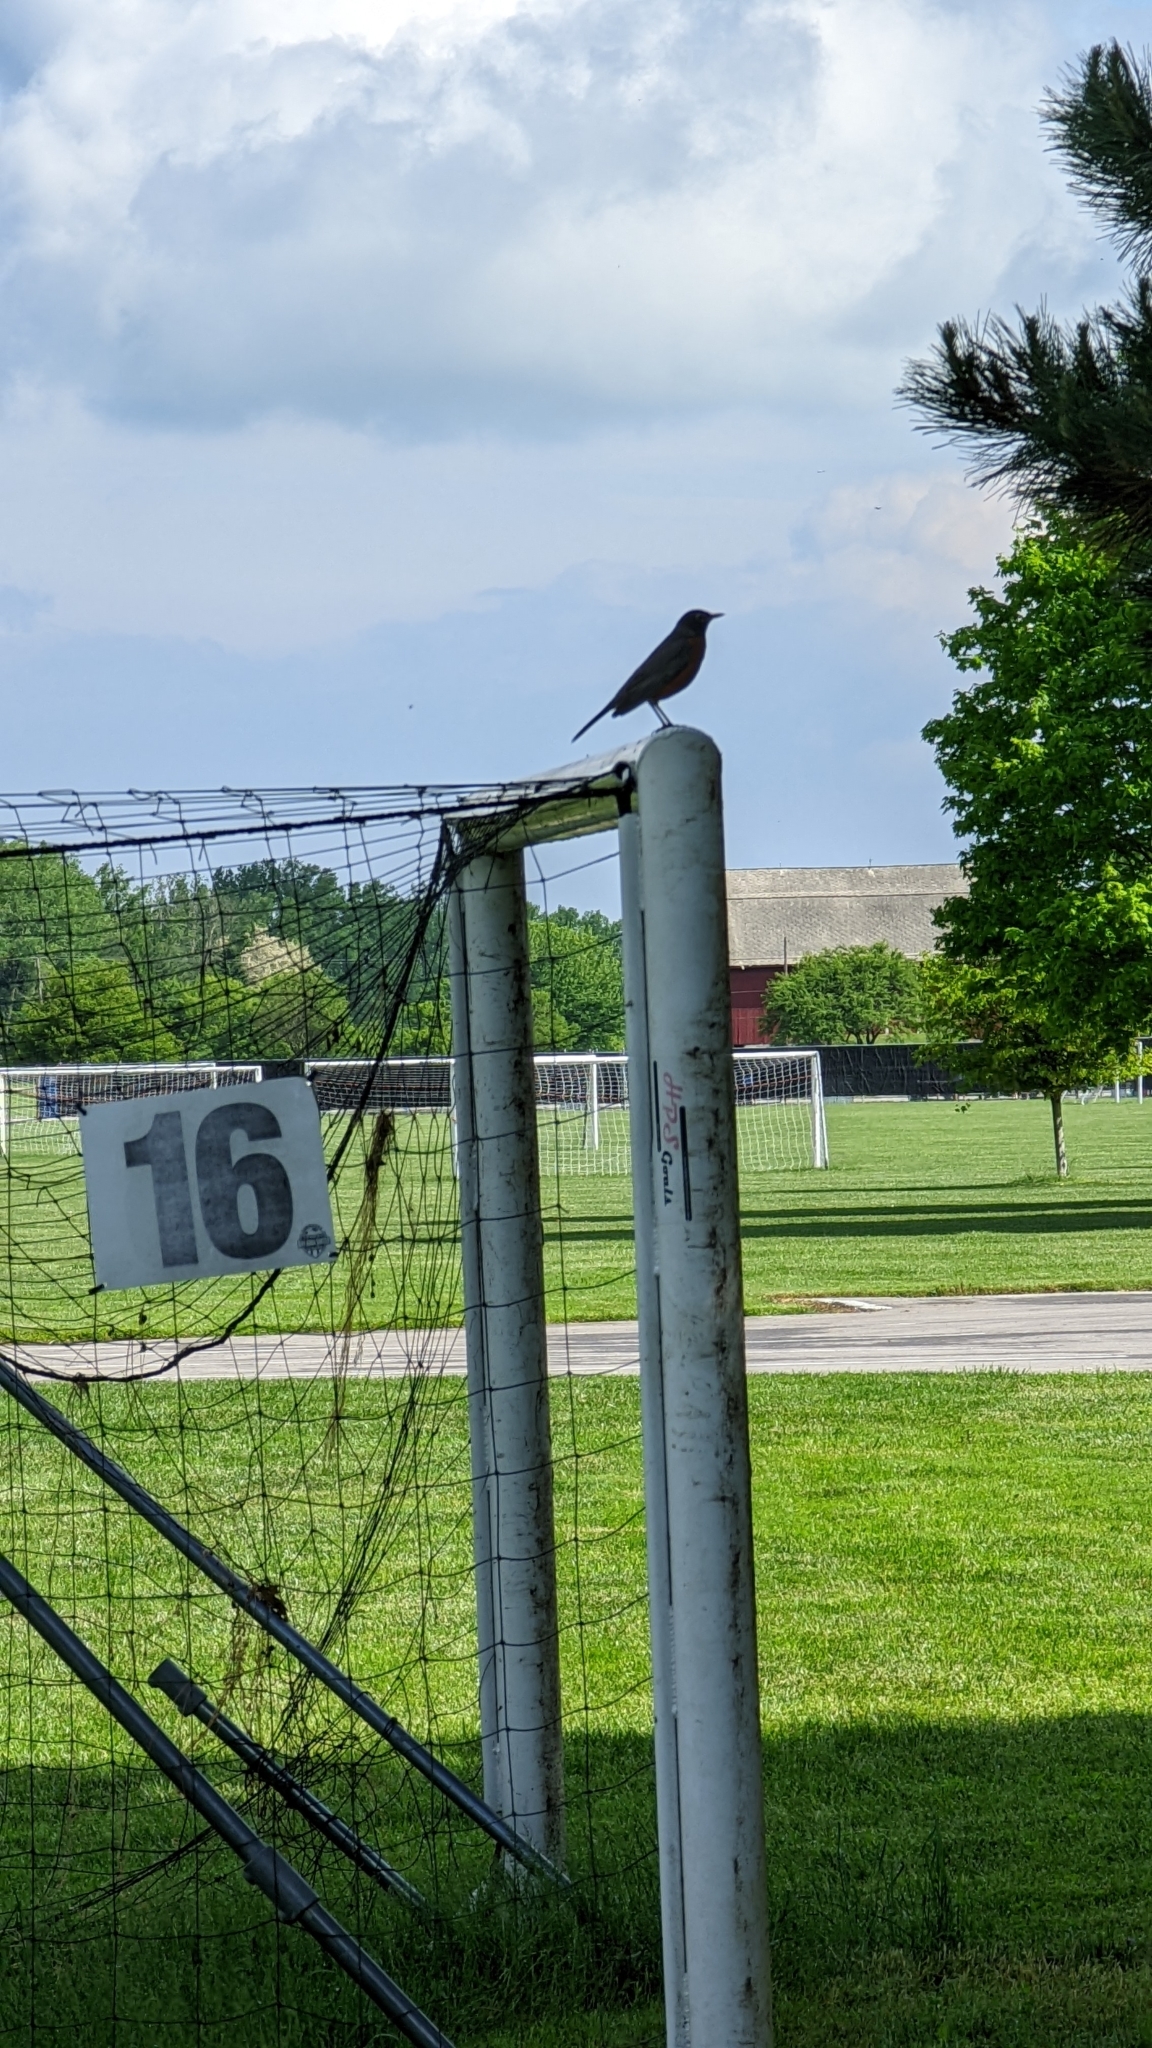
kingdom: Animalia
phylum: Chordata
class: Aves
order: Passeriformes
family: Turdidae
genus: Turdus
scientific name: Turdus migratorius
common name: American robin
